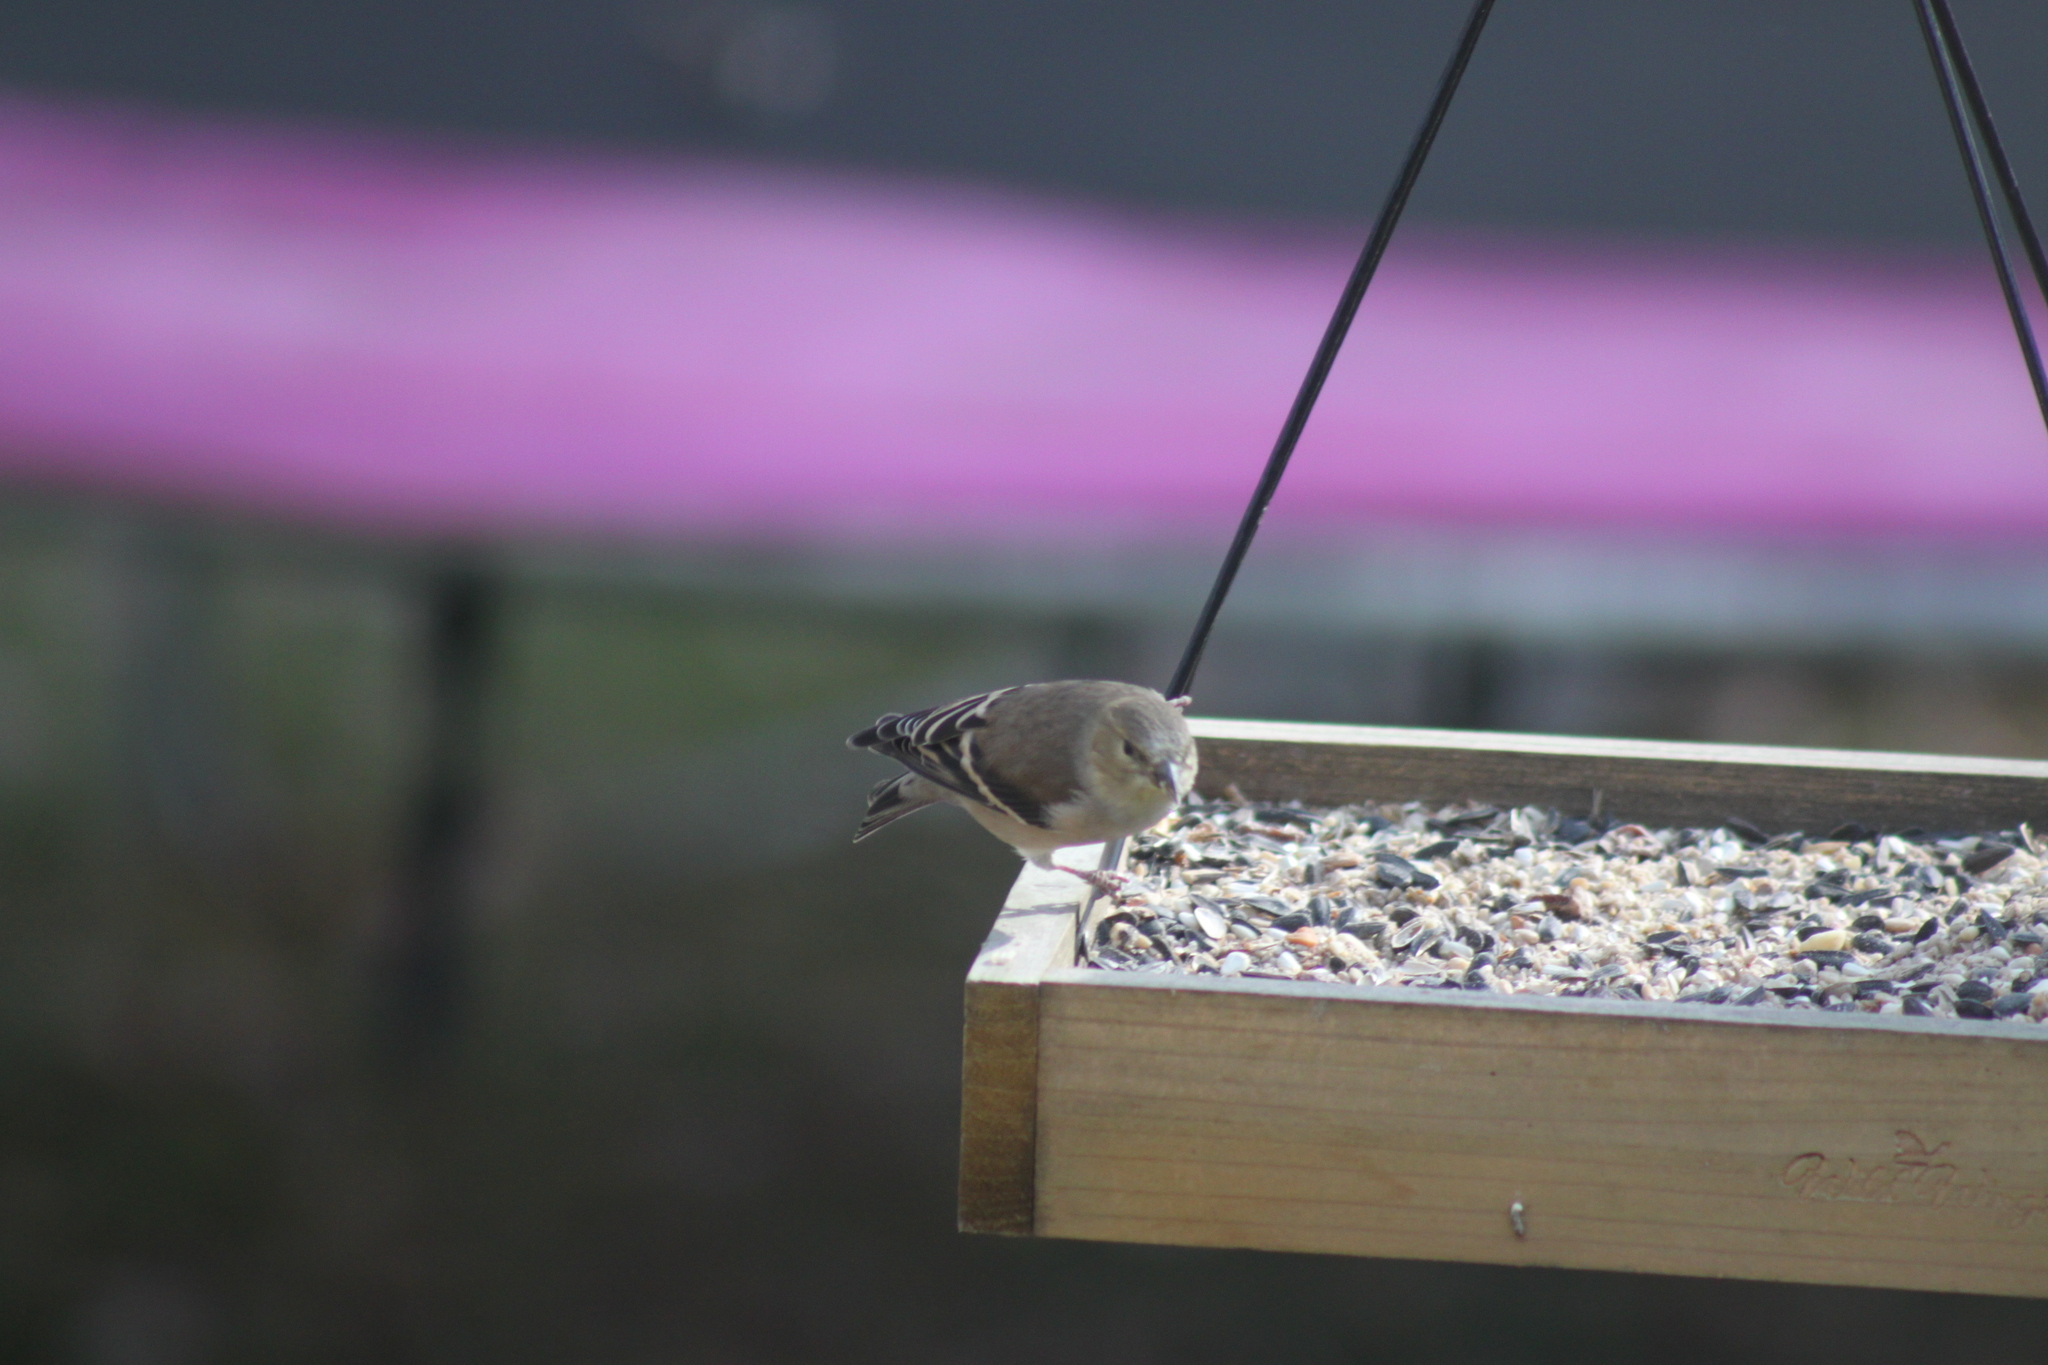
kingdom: Animalia
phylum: Chordata
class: Aves
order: Passeriformes
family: Fringillidae
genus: Spinus
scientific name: Spinus tristis
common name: American goldfinch
